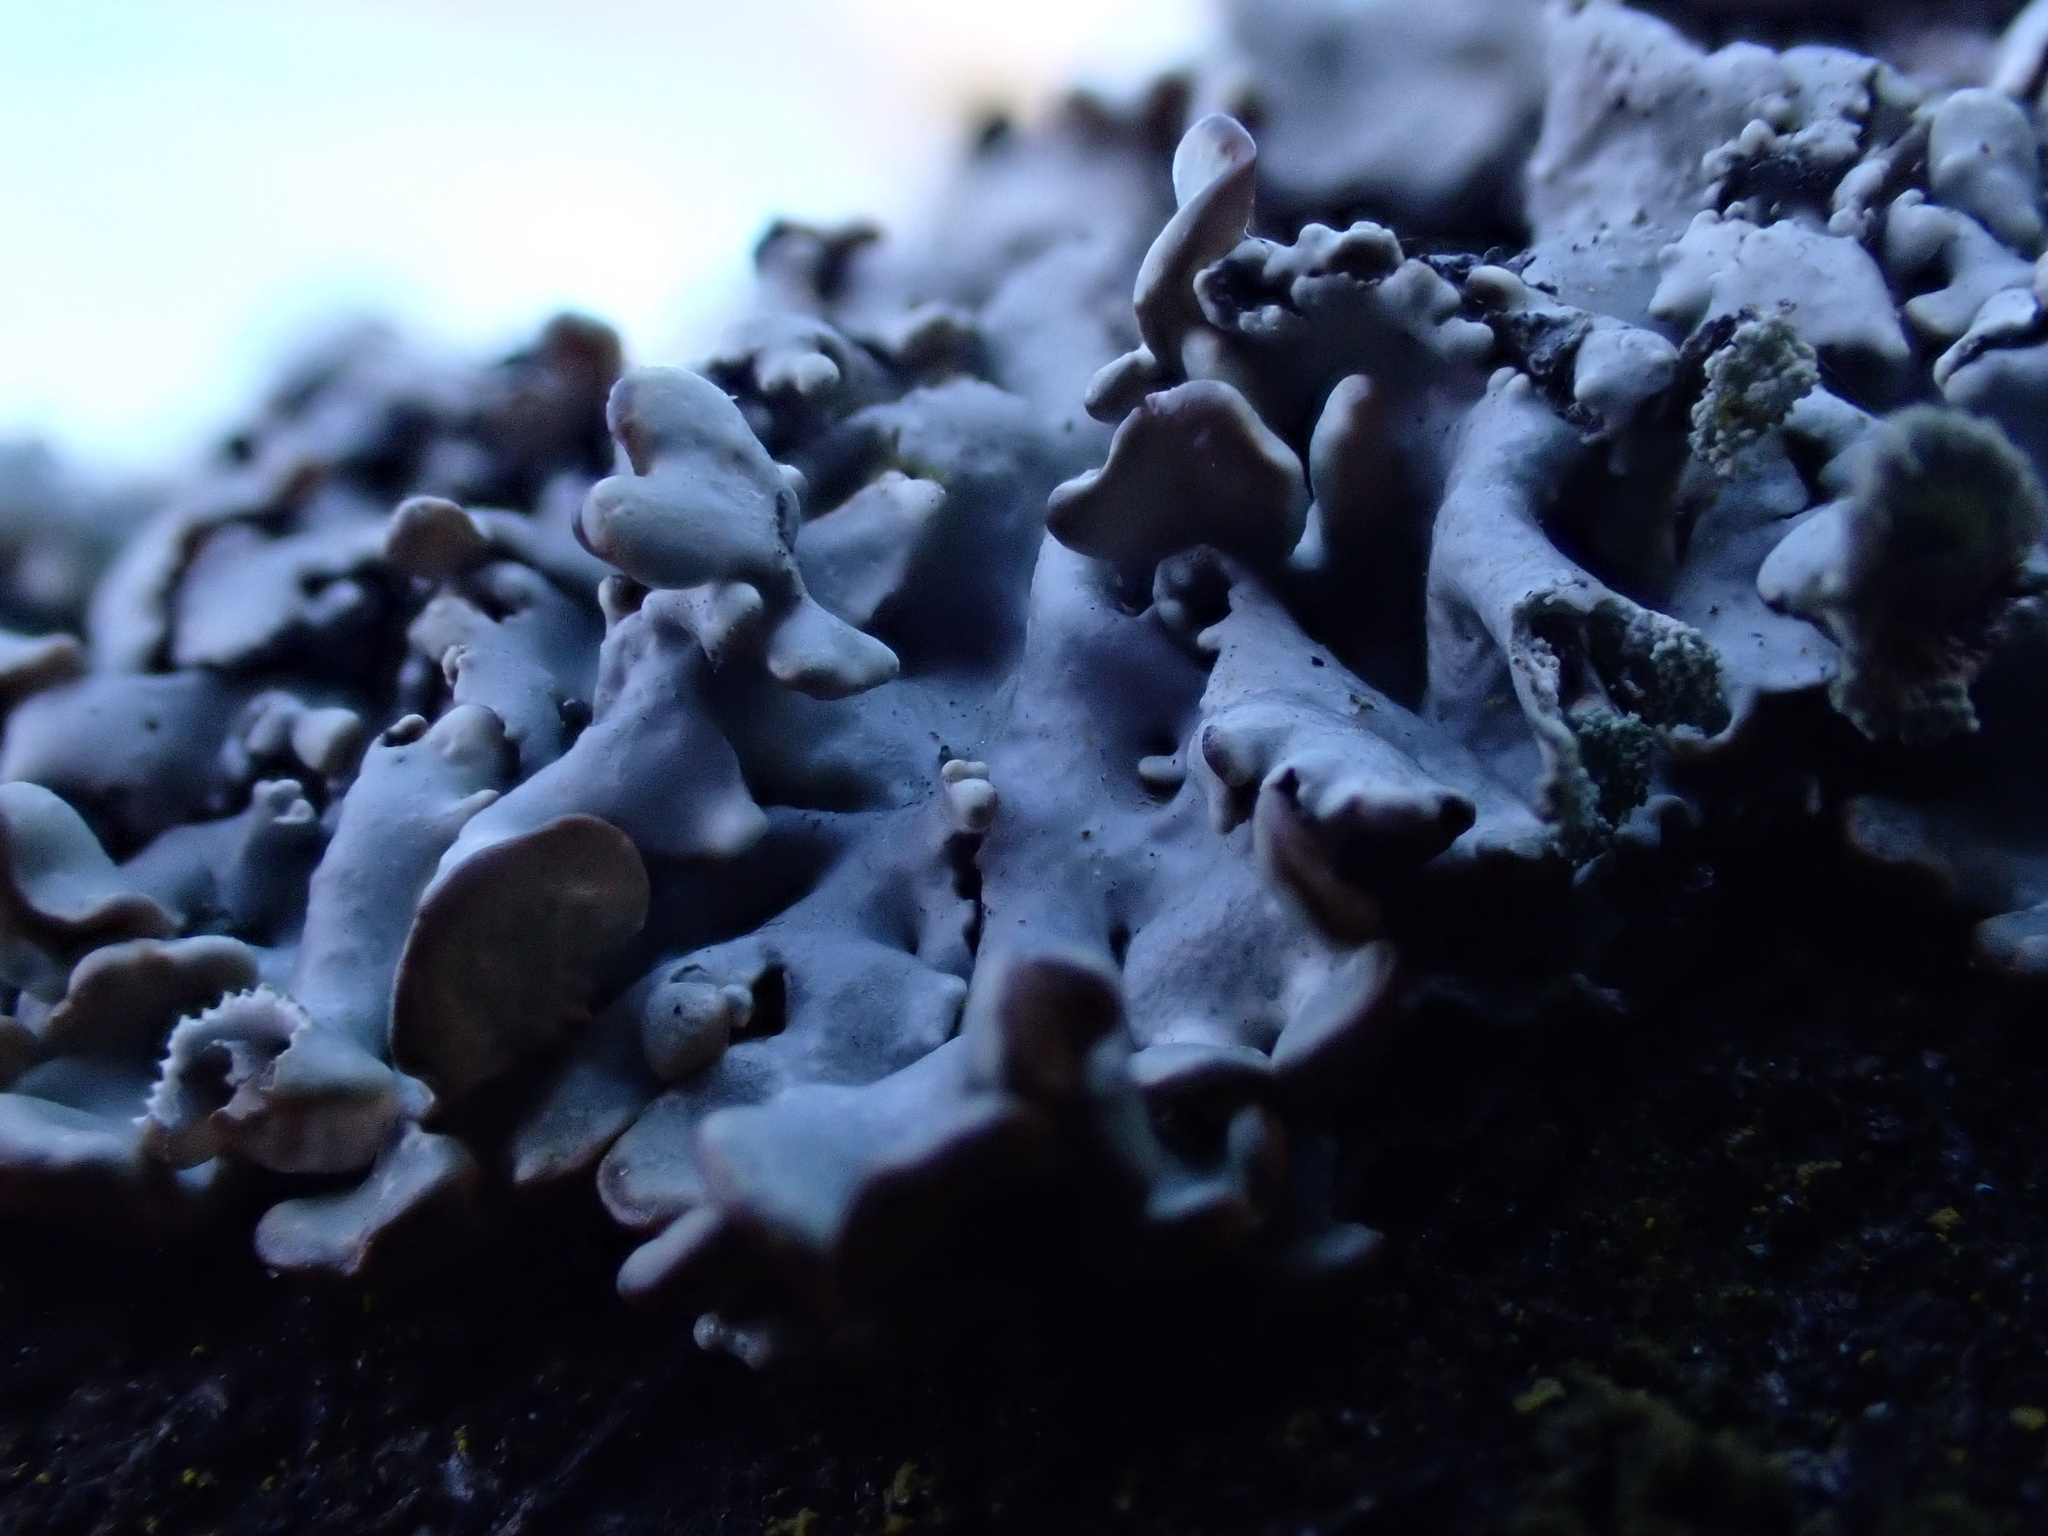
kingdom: Fungi
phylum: Ascomycota
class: Lecanoromycetes
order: Lecanorales
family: Parmeliaceae
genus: Hypogymnia
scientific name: Hypogymnia physodes
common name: Dark crottle
